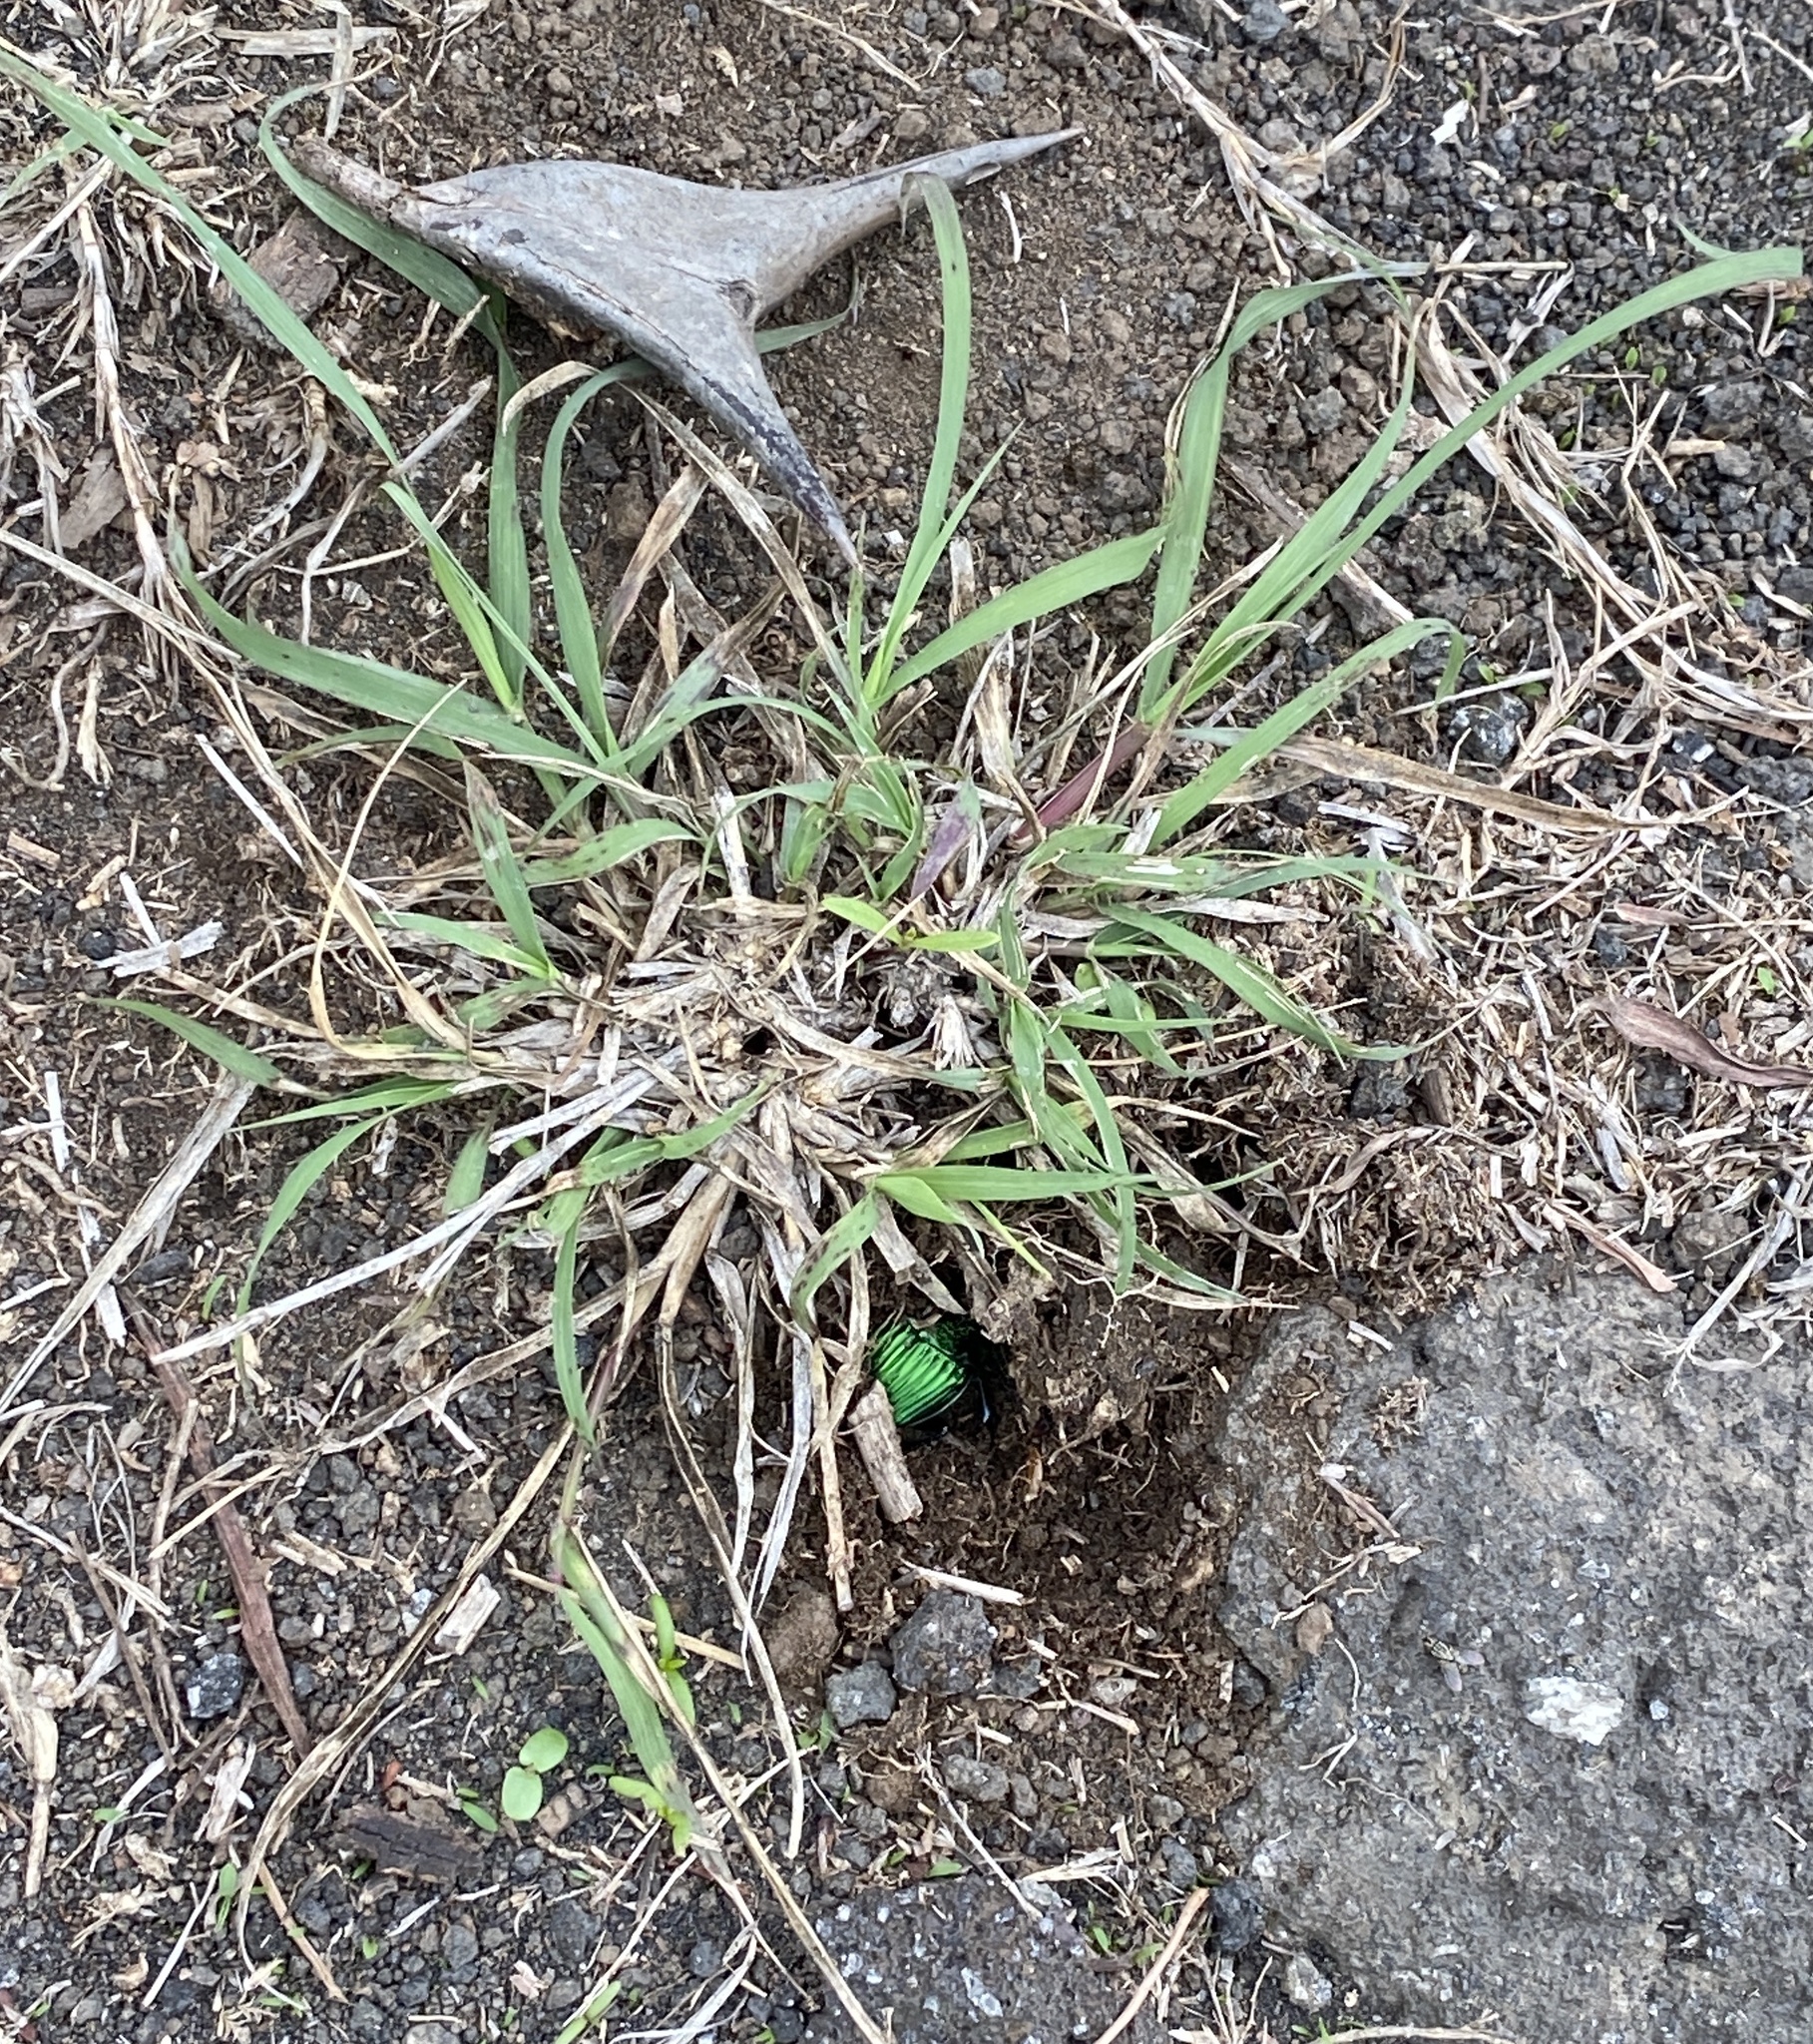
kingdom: Animalia
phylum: Arthropoda
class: Insecta
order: Coleoptera
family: Scarabaeidae
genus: Phanaeus
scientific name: Phanaeus eximius
